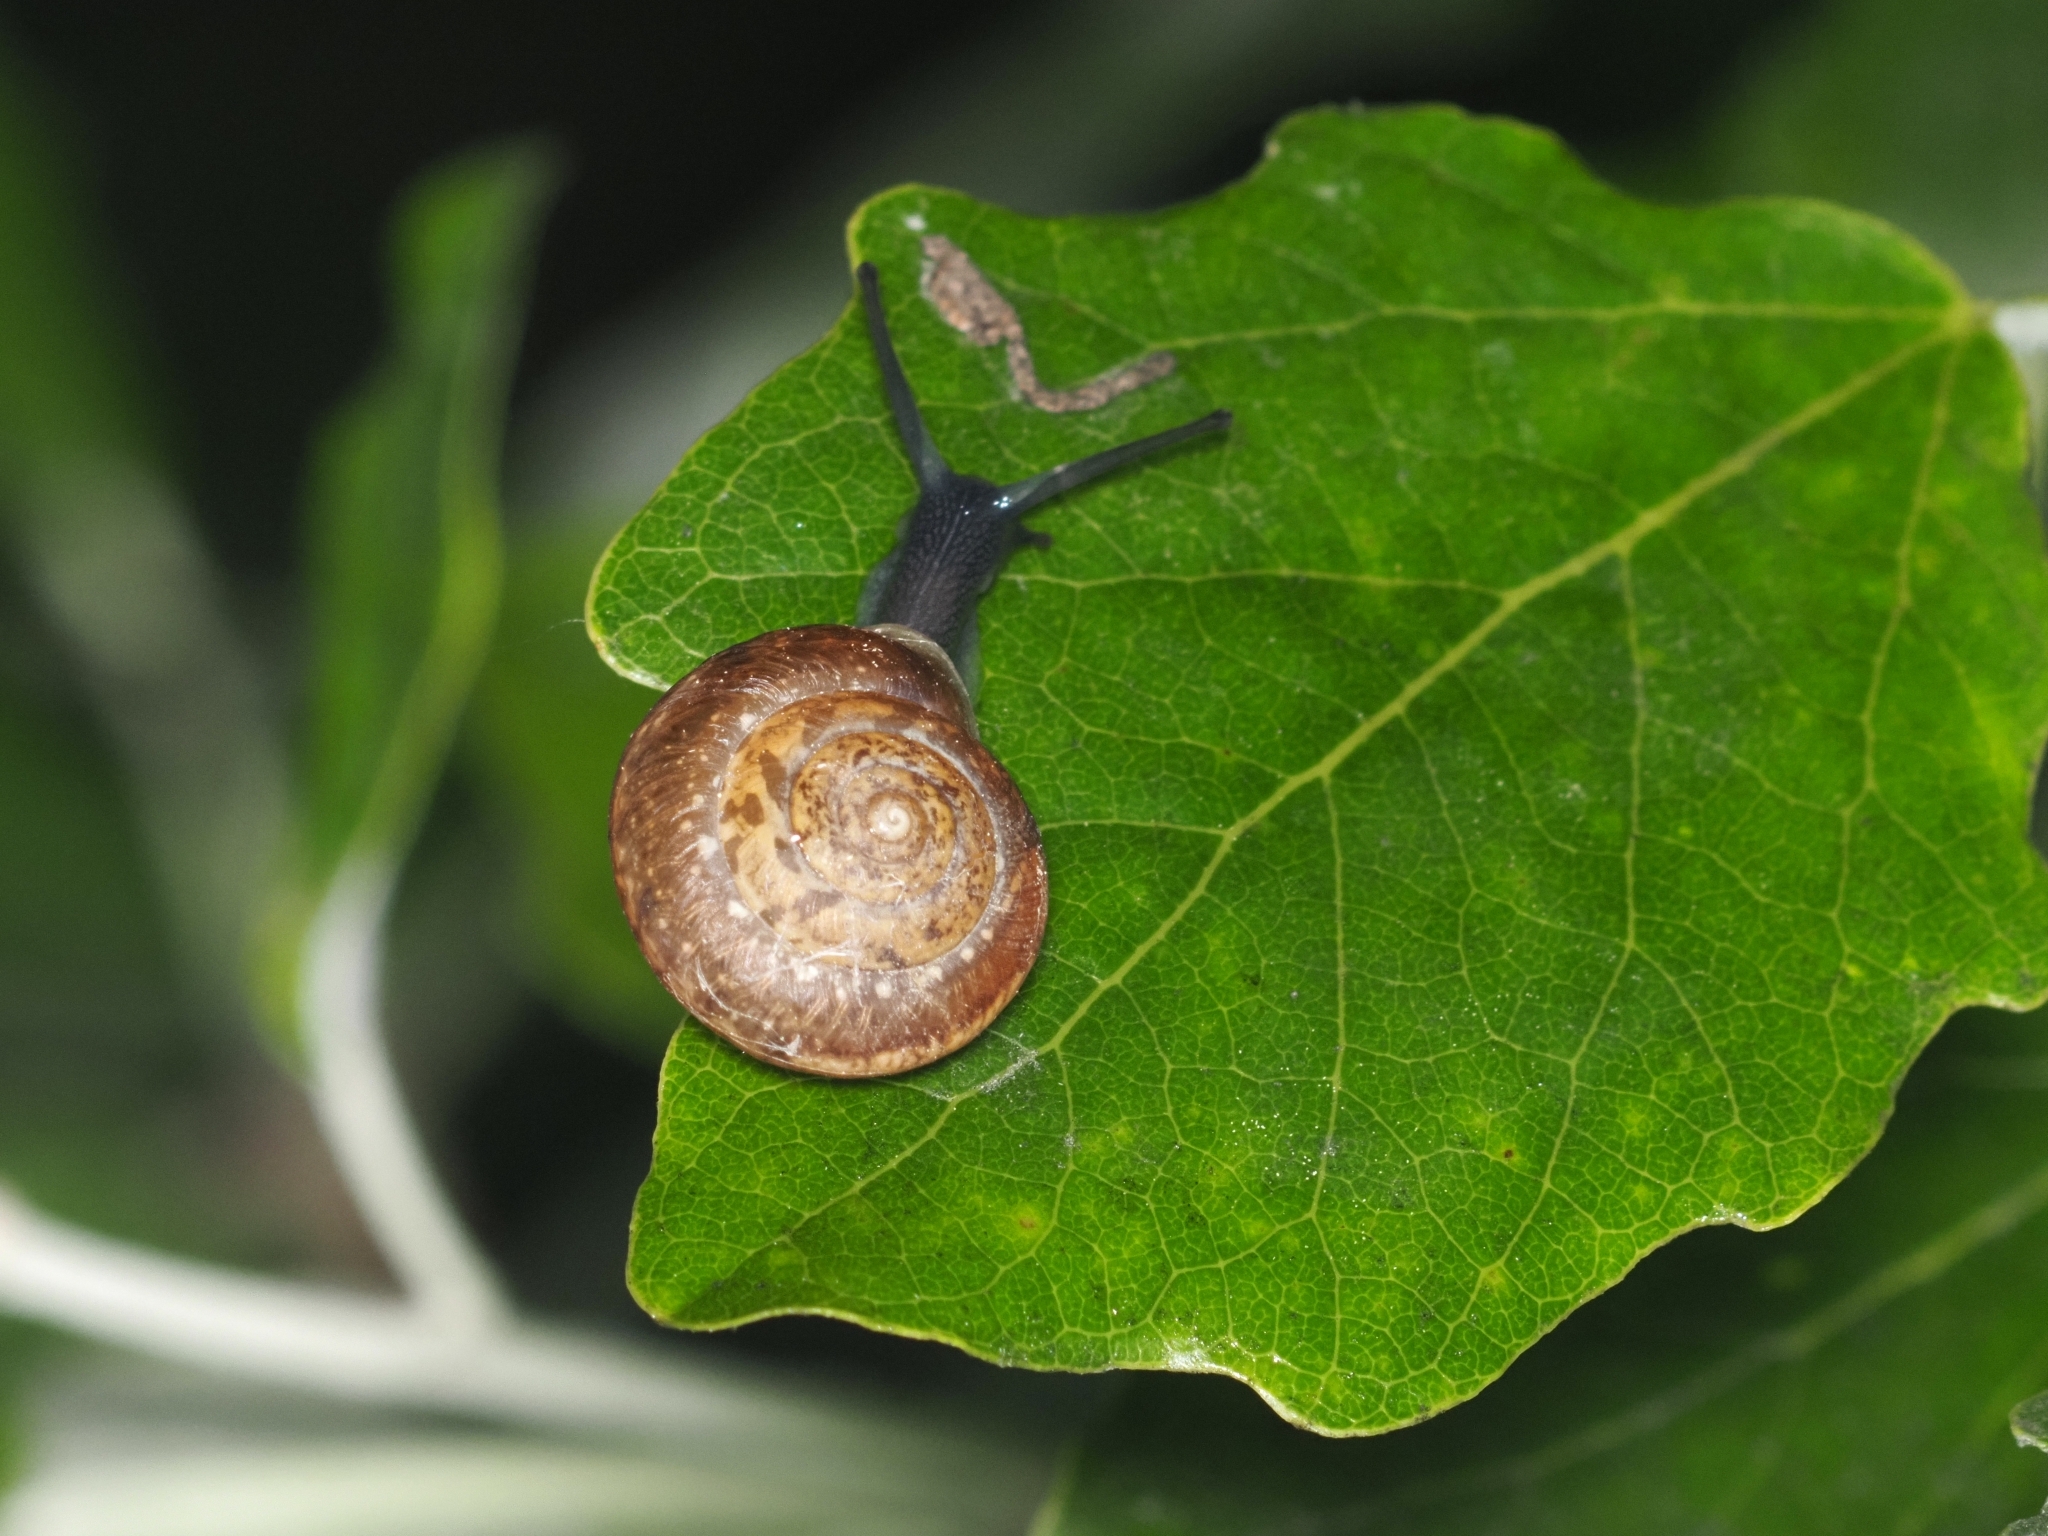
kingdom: Animalia
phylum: Mollusca
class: Gastropoda
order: Stylommatophora
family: Hygromiidae
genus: Hygromia
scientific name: Hygromia cinctella
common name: Girdled snail
